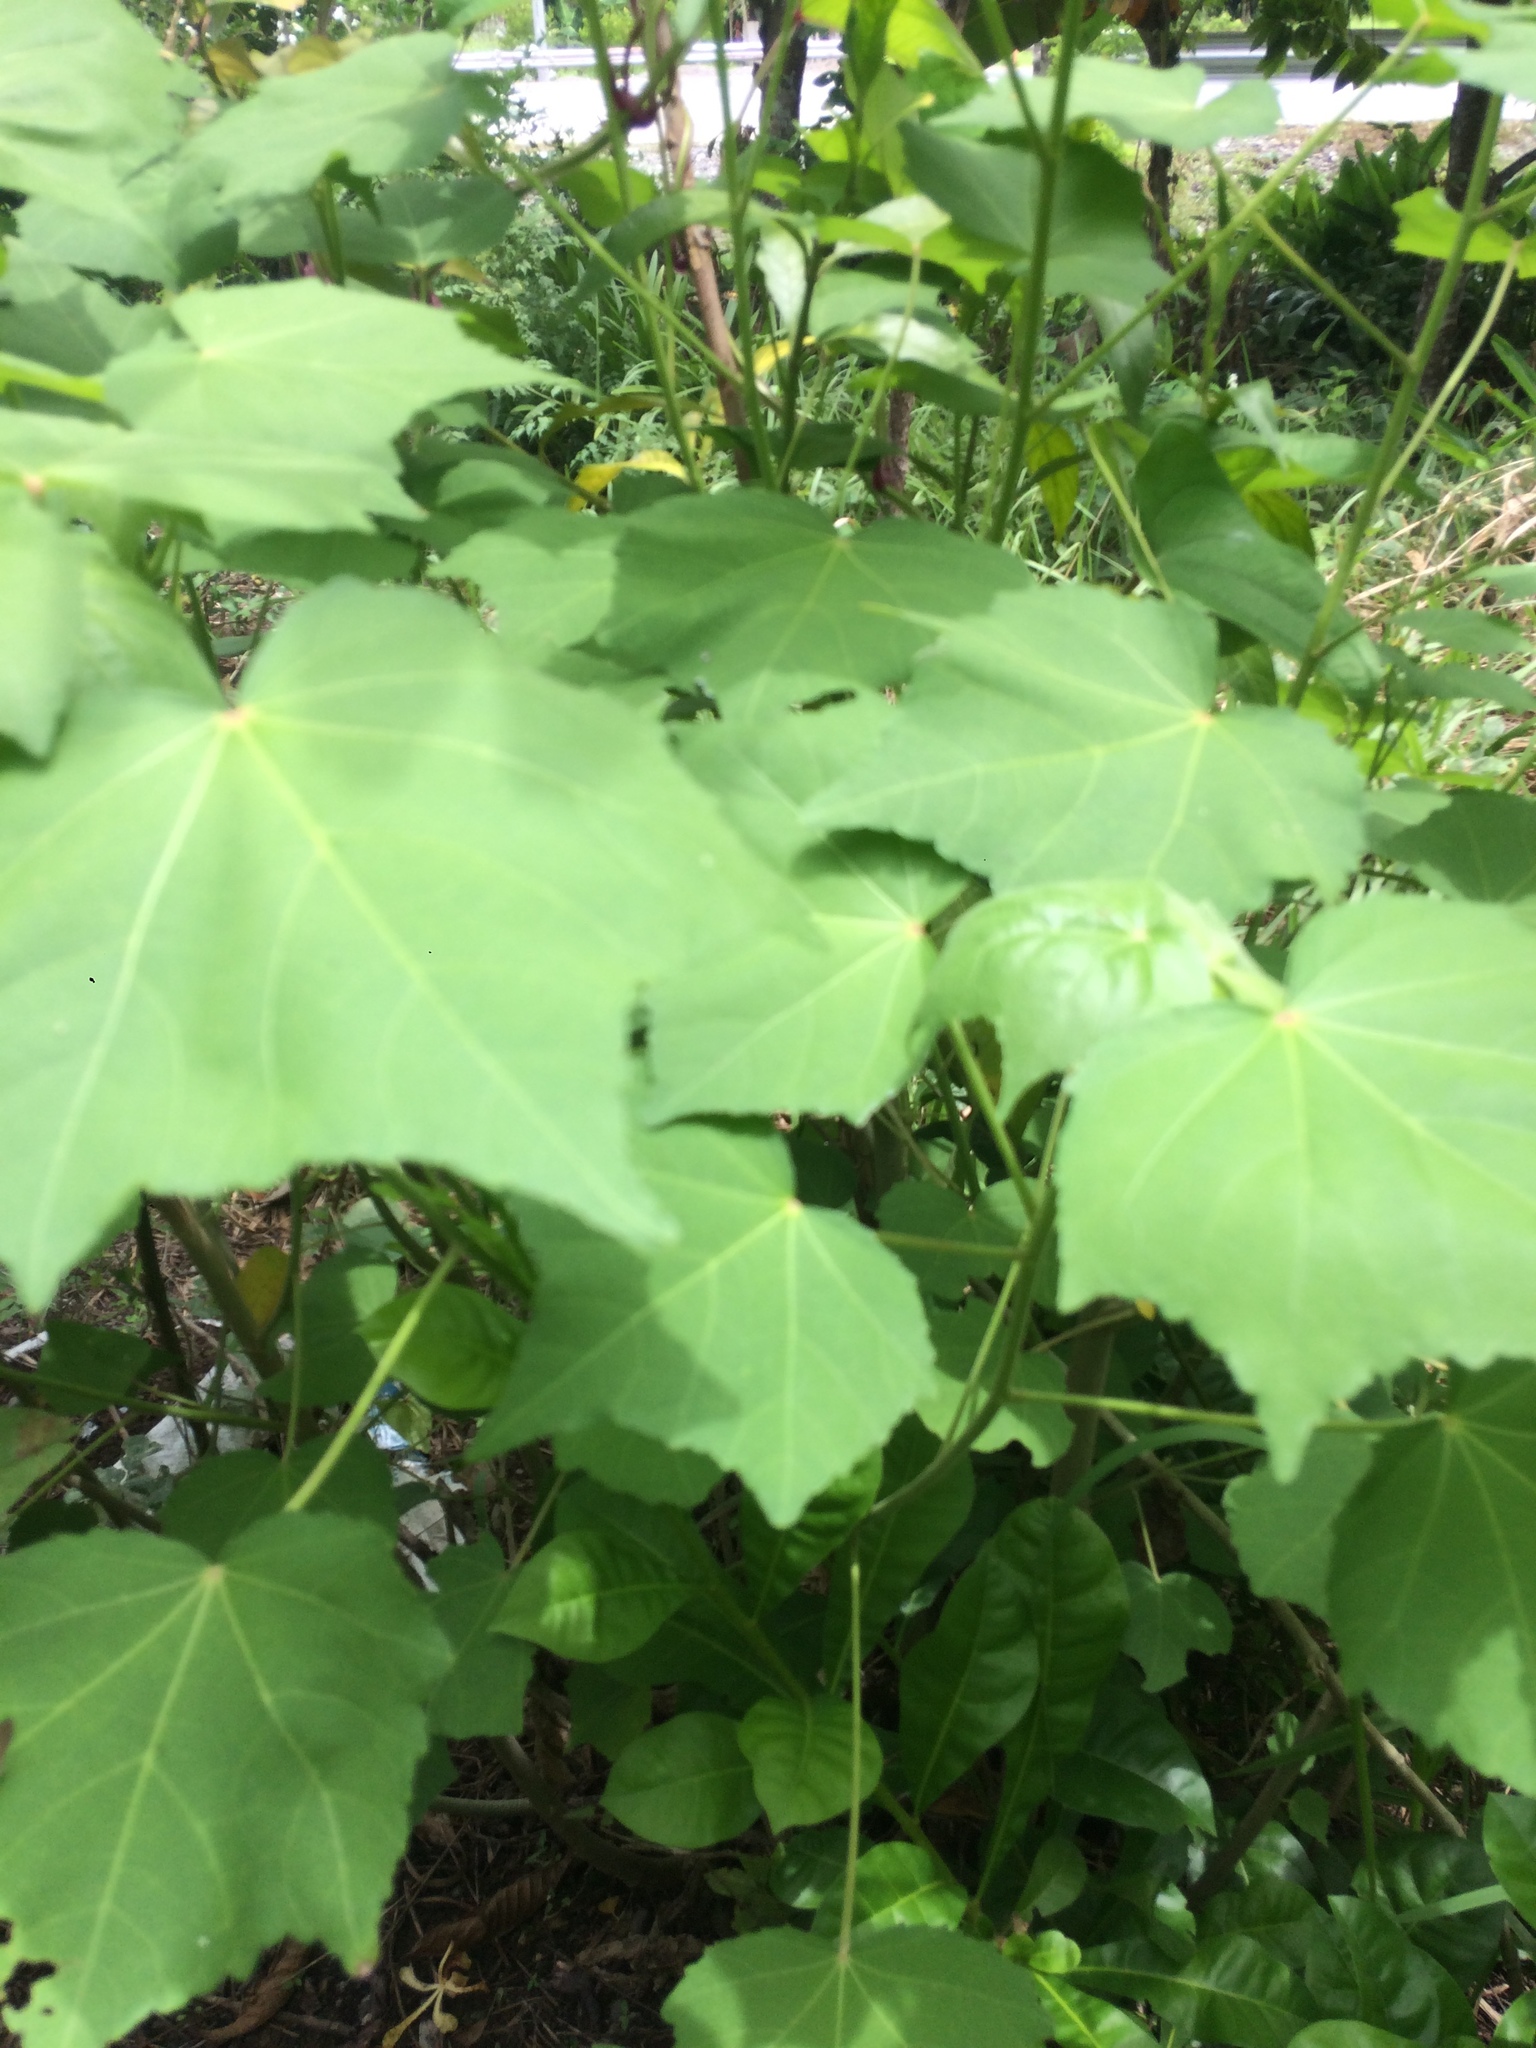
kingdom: Plantae
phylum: Tracheophyta
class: Magnoliopsida
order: Malvales
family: Malvaceae
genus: Hibiscus
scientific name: Hibiscus mutabilis
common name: Dixie rosemallow
